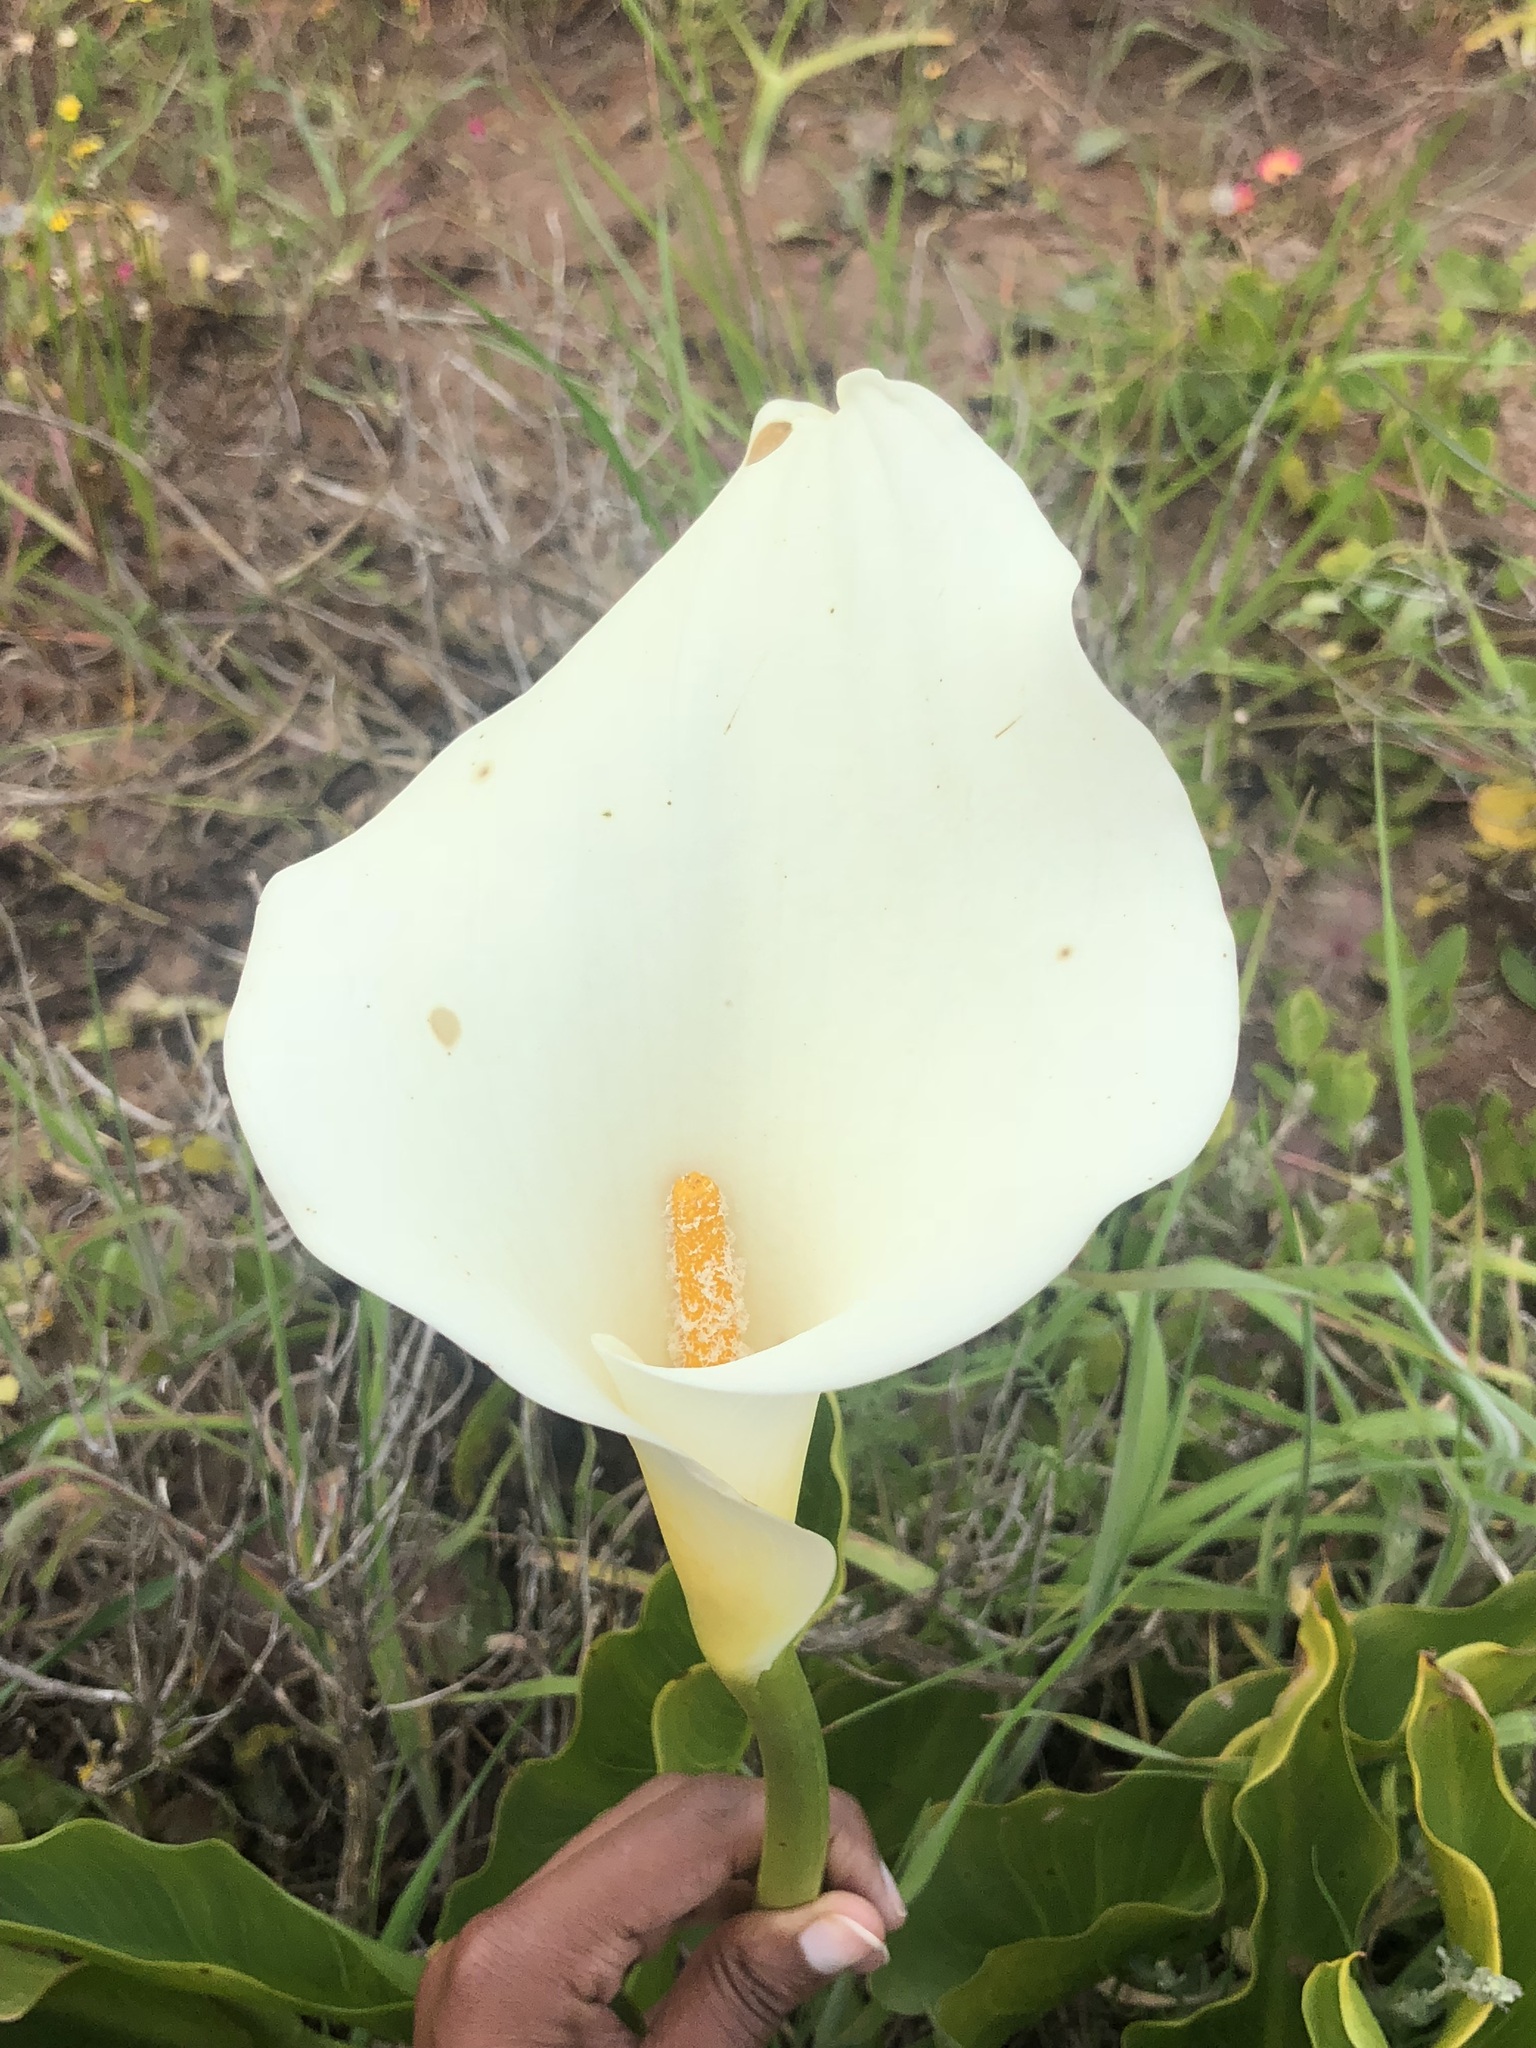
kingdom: Plantae
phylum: Tracheophyta
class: Liliopsida
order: Alismatales
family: Araceae
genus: Zantedeschia
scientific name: Zantedeschia aethiopica
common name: Altar-lily
